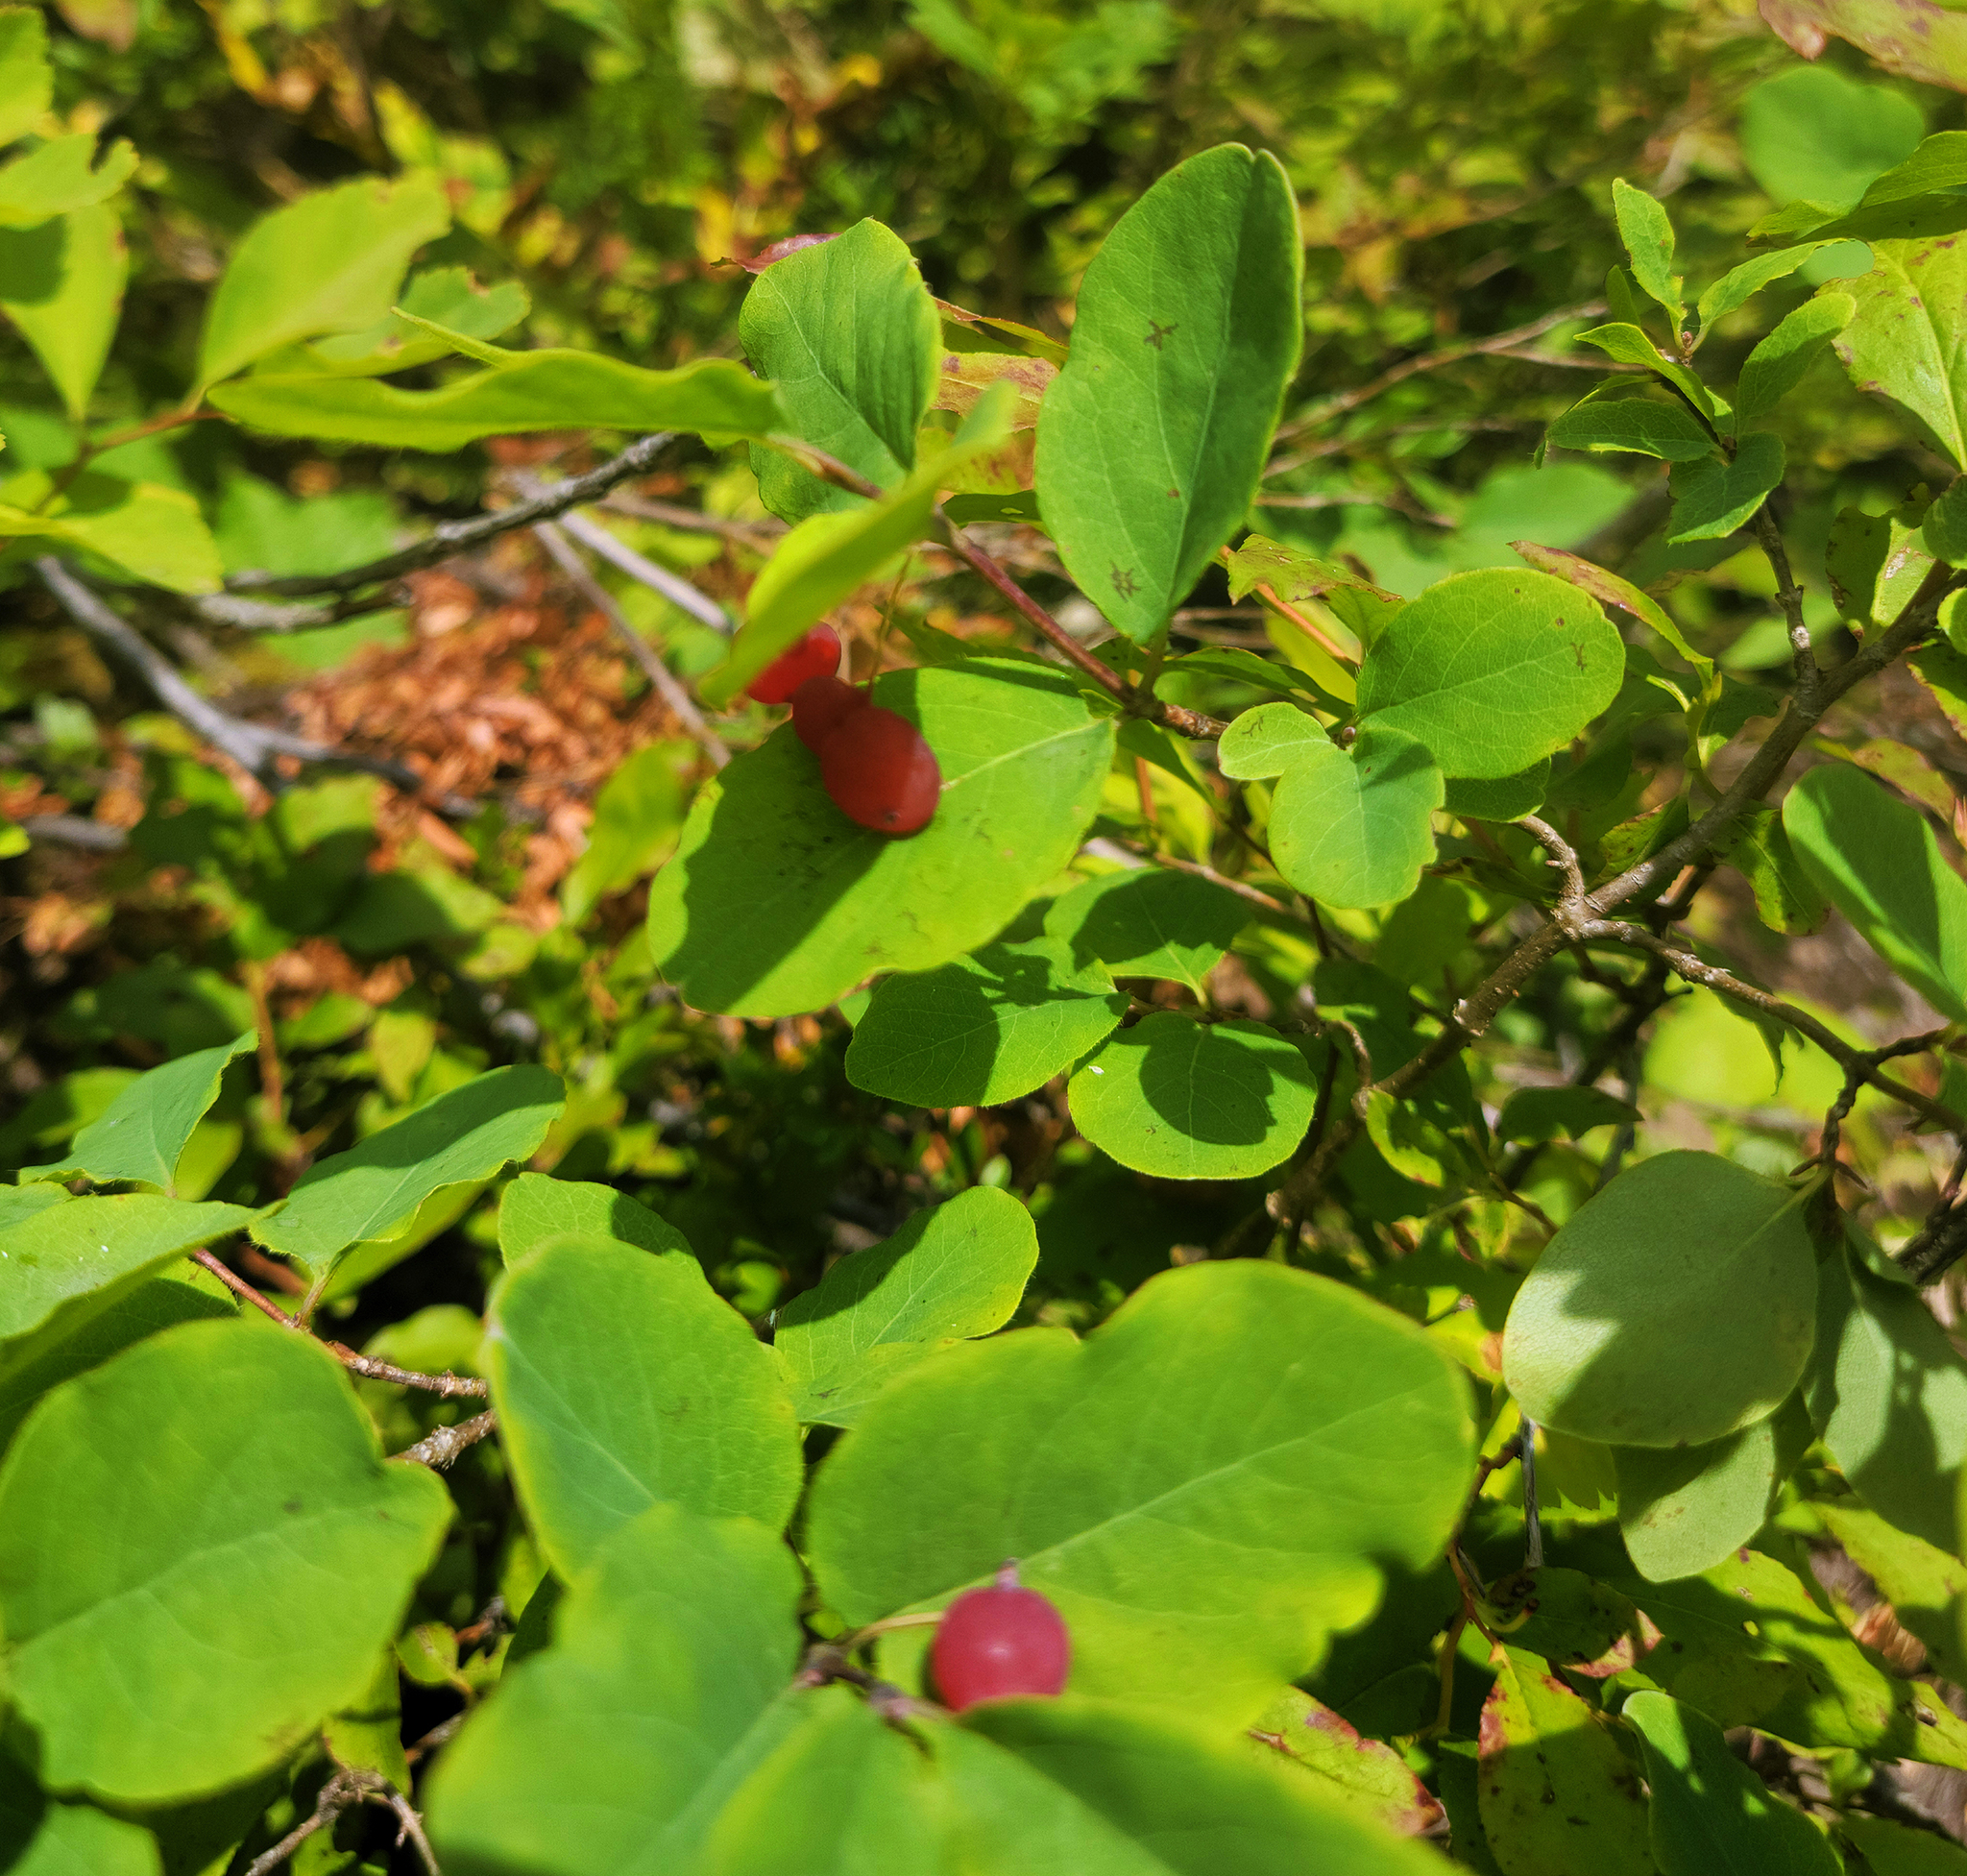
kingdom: Plantae
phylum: Tracheophyta
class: Magnoliopsida
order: Dipsacales
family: Caprifoliaceae
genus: Lonicera
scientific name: Lonicera utahensis
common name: Utah honeysuckle
